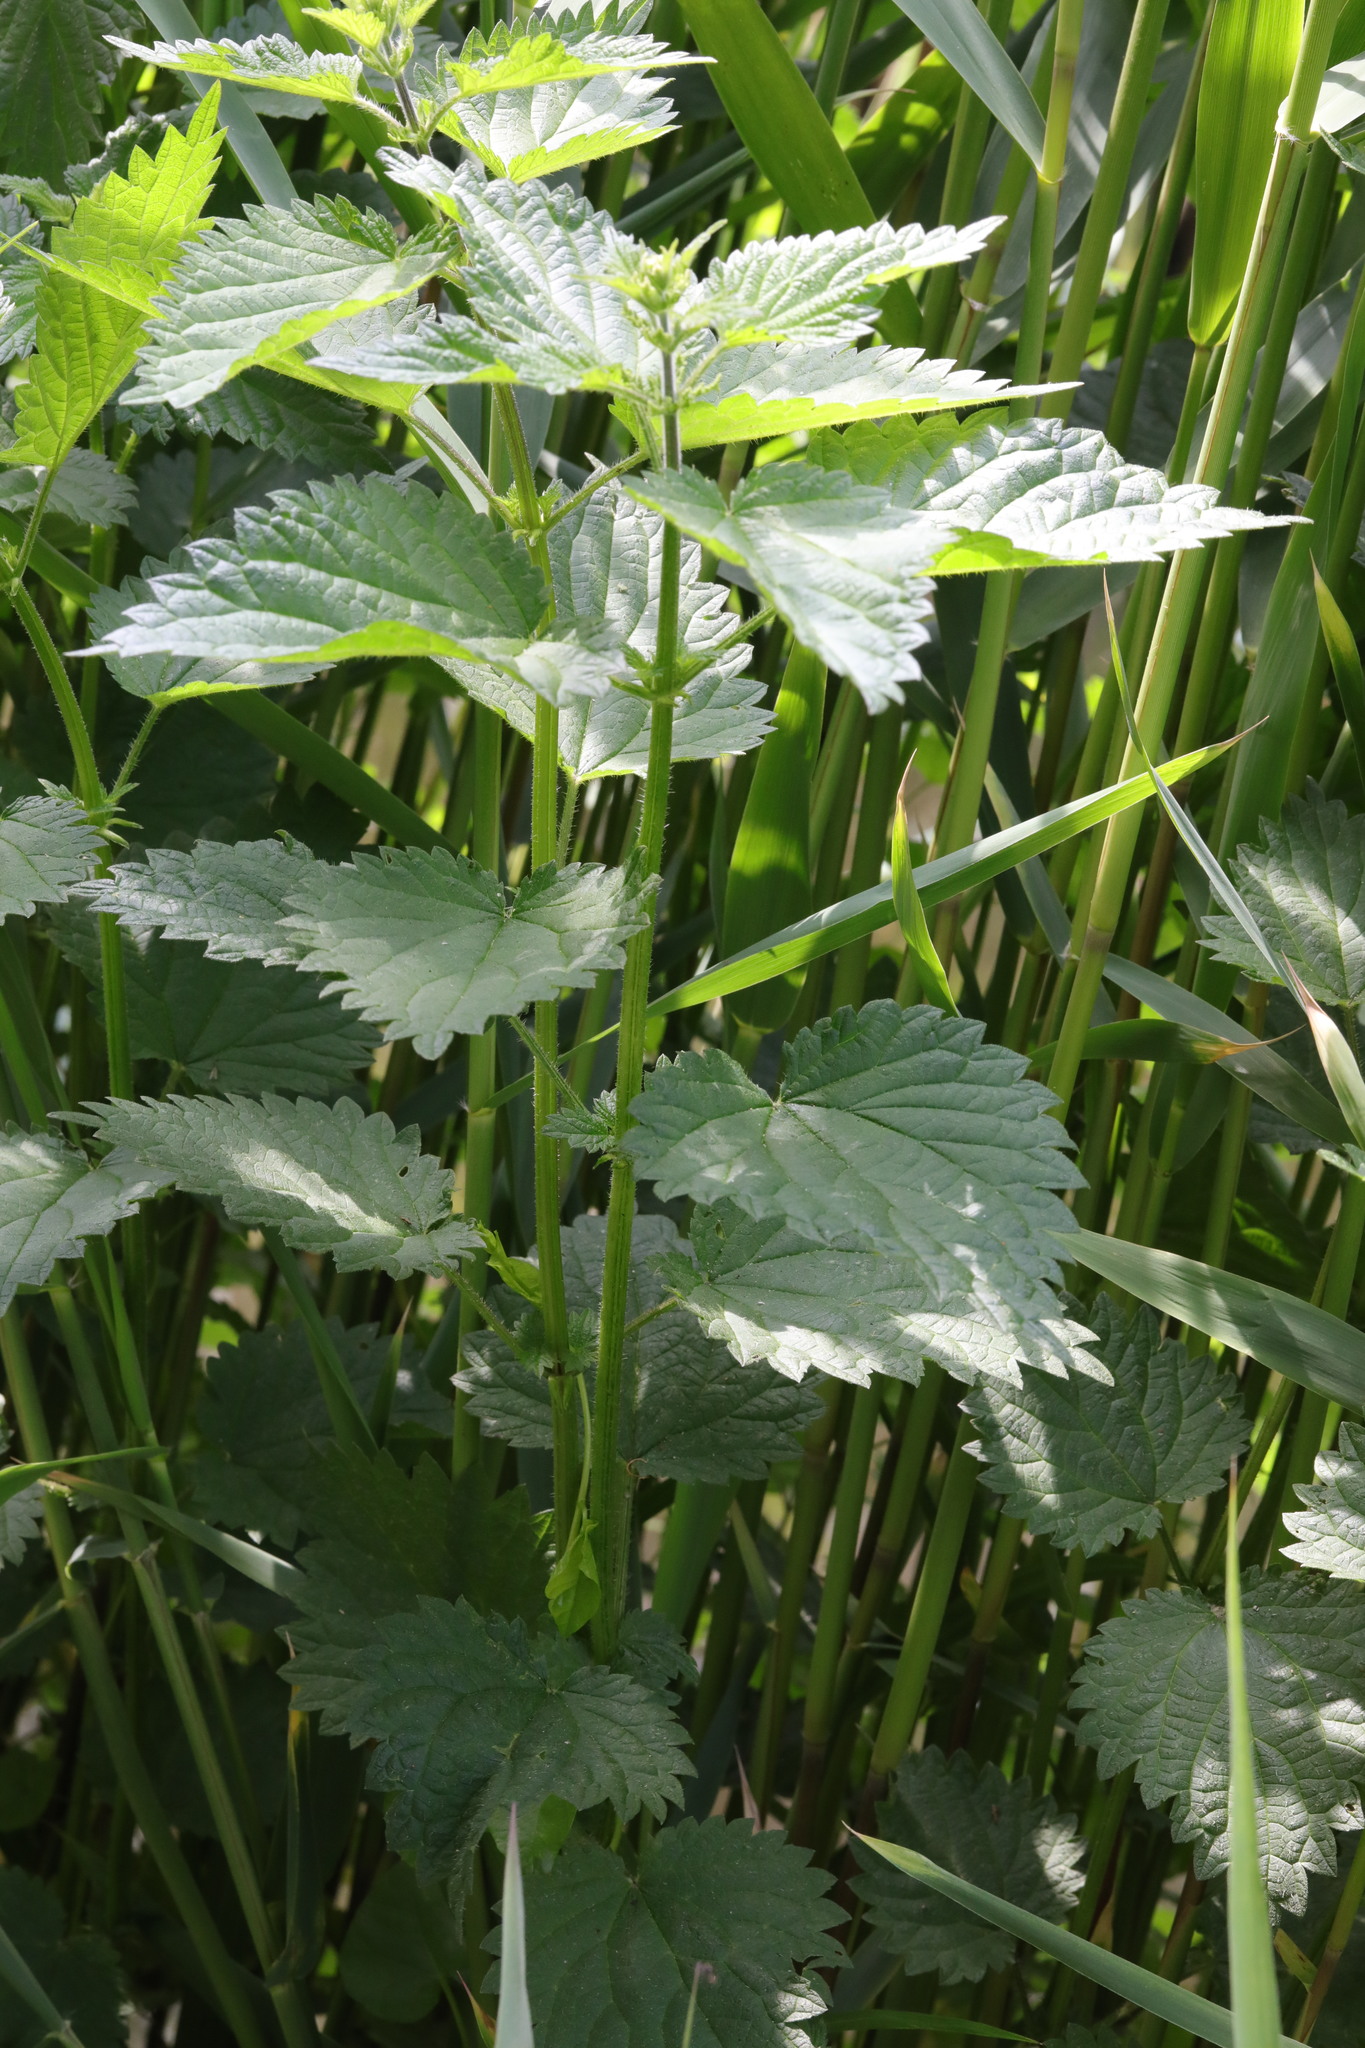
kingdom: Plantae
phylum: Tracheophyta
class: Magnoliopsida
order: Rosales
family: Urticaceae
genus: Urtica
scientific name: Urtica dioica
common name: Common nettle
